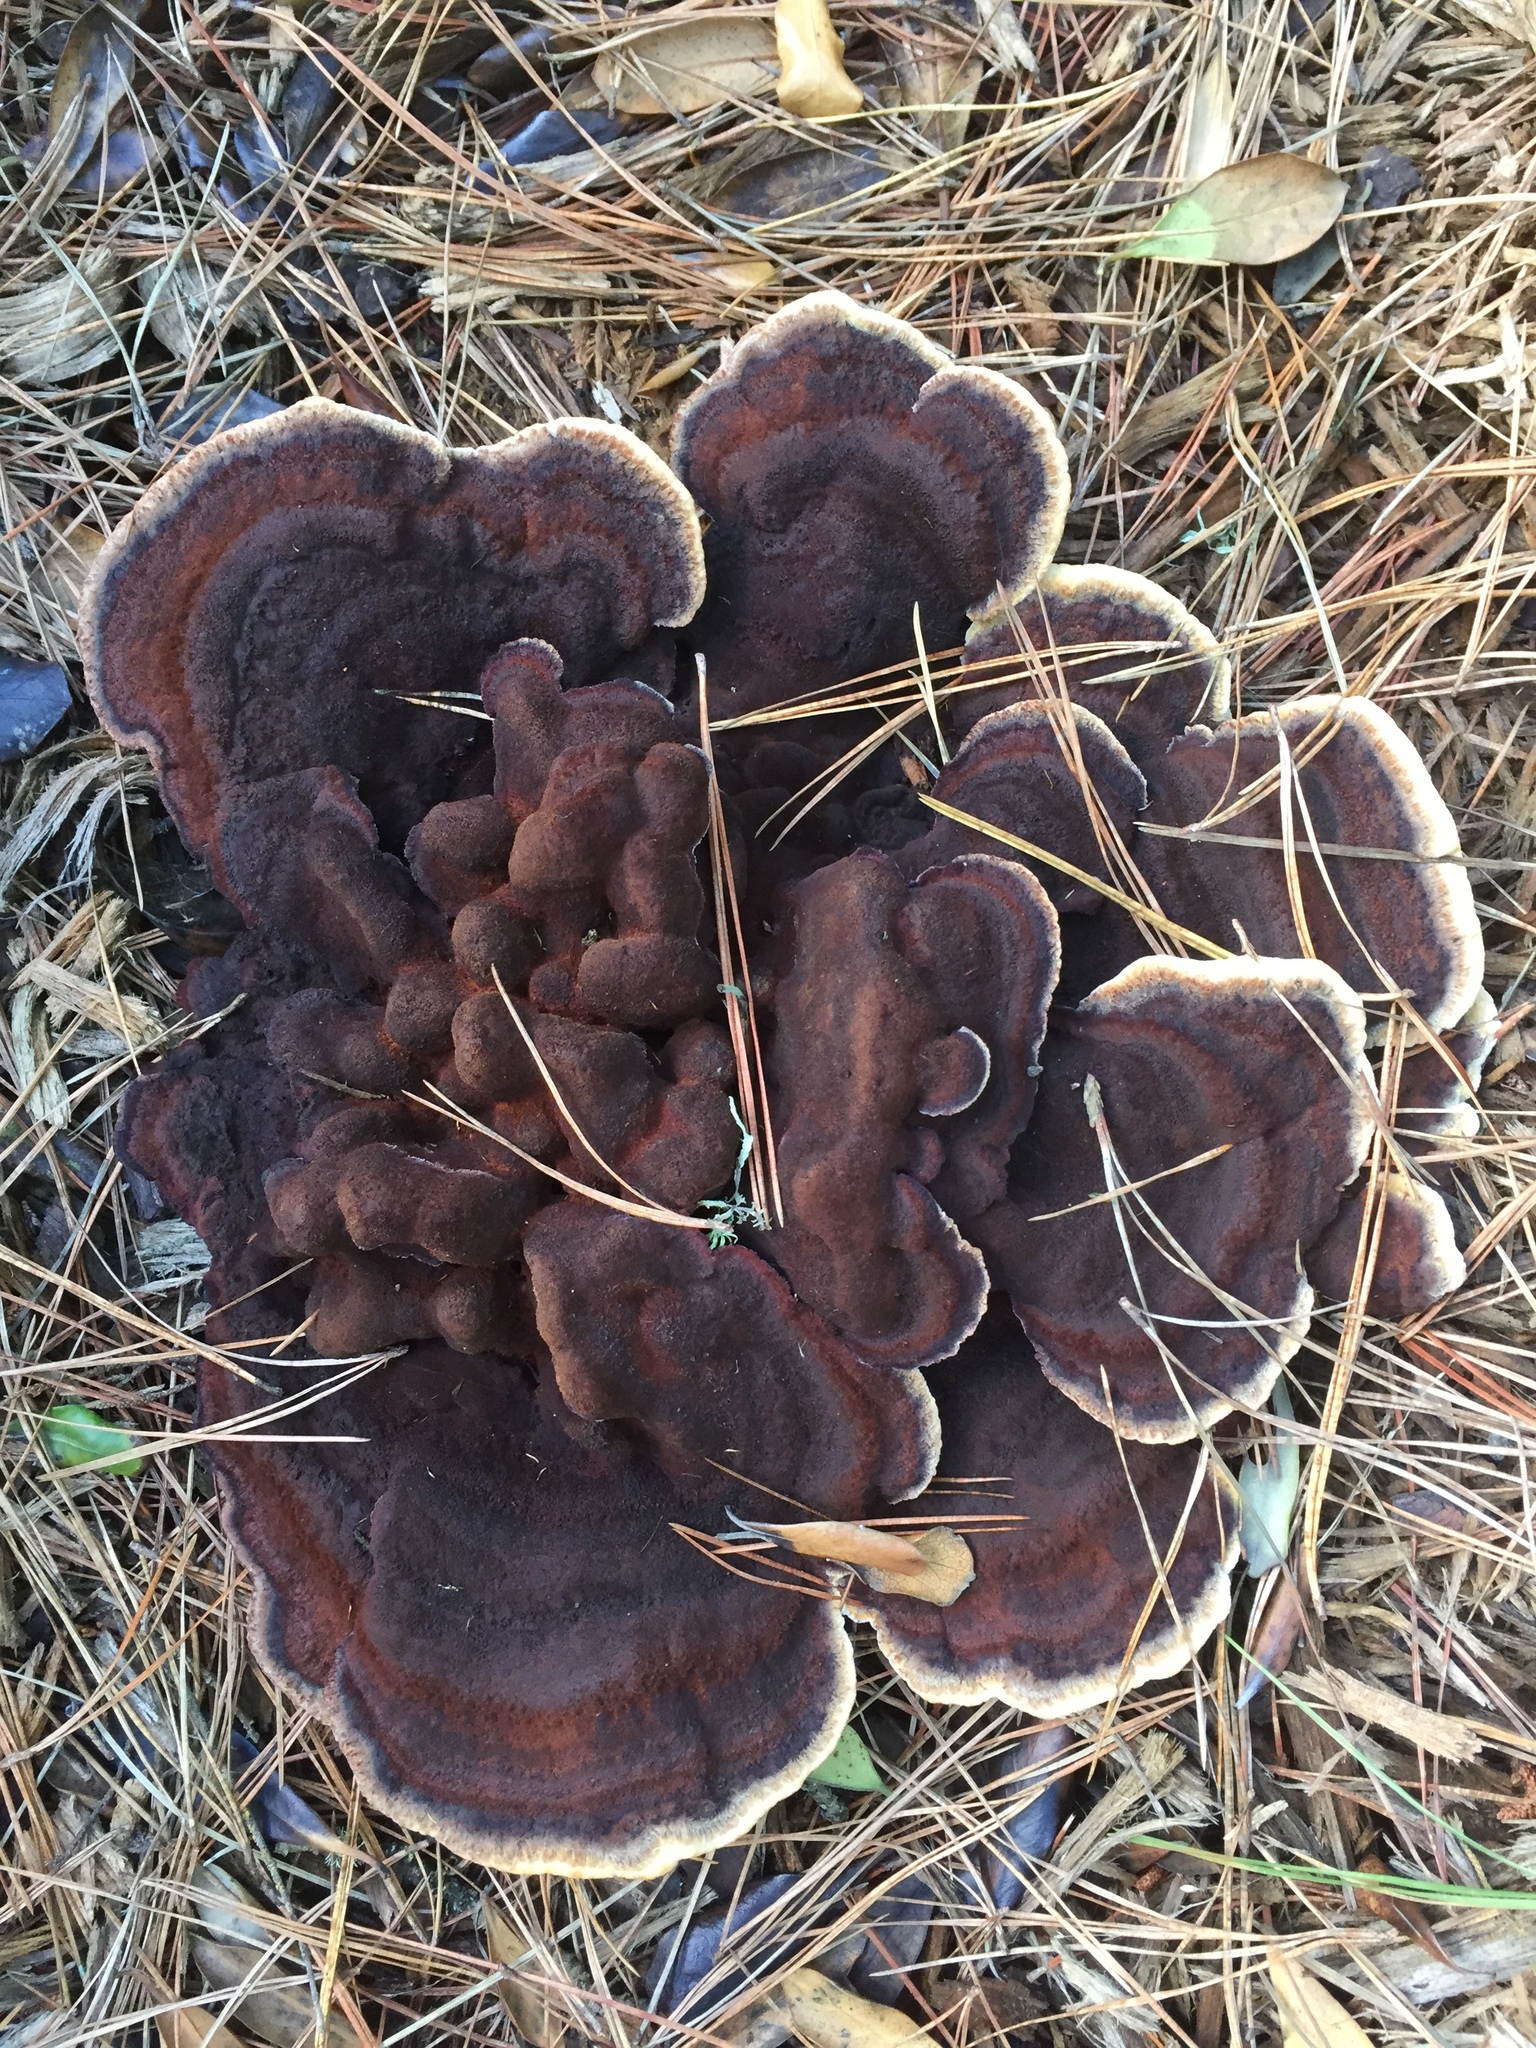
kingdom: Fungi
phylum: Basidiomycota
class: Agaricomycetes
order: Polyporales
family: Laetiporaceae
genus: Phaeolus
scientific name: Phaeolus schweinitzii
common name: Dyer's mazegill
